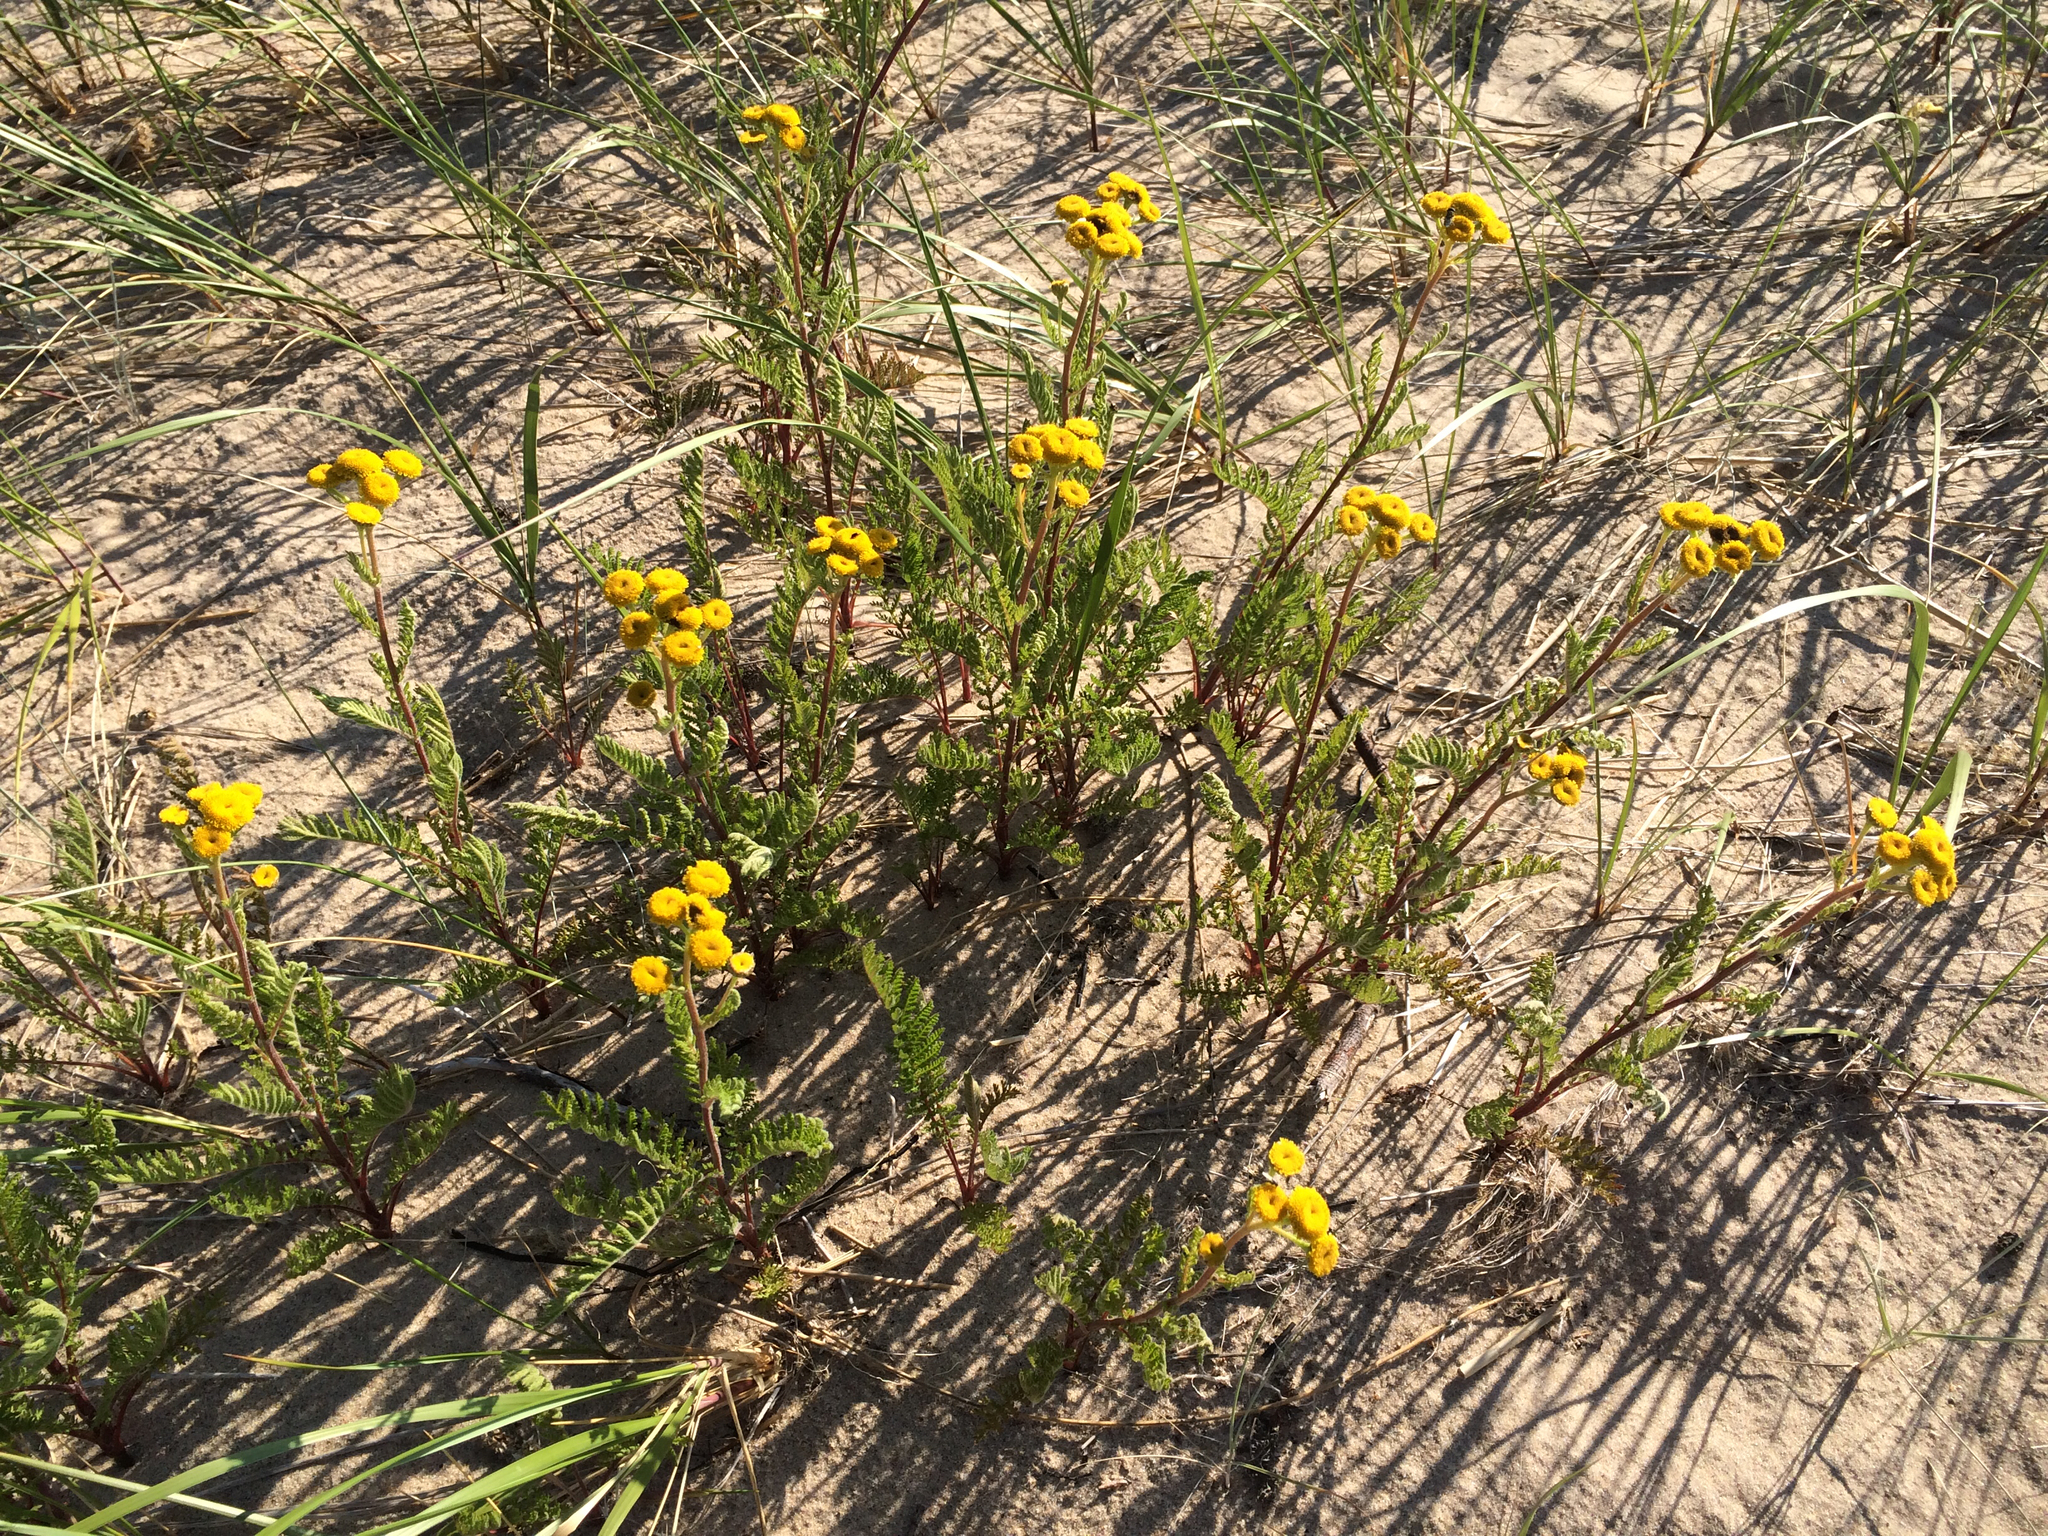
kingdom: Plantae
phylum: Tracheophyta
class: Magnoliopsida
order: Asterales
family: Asteraceae
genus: Tanacetum
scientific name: Tanacetum bipinnatum
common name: Dwarf tansy
